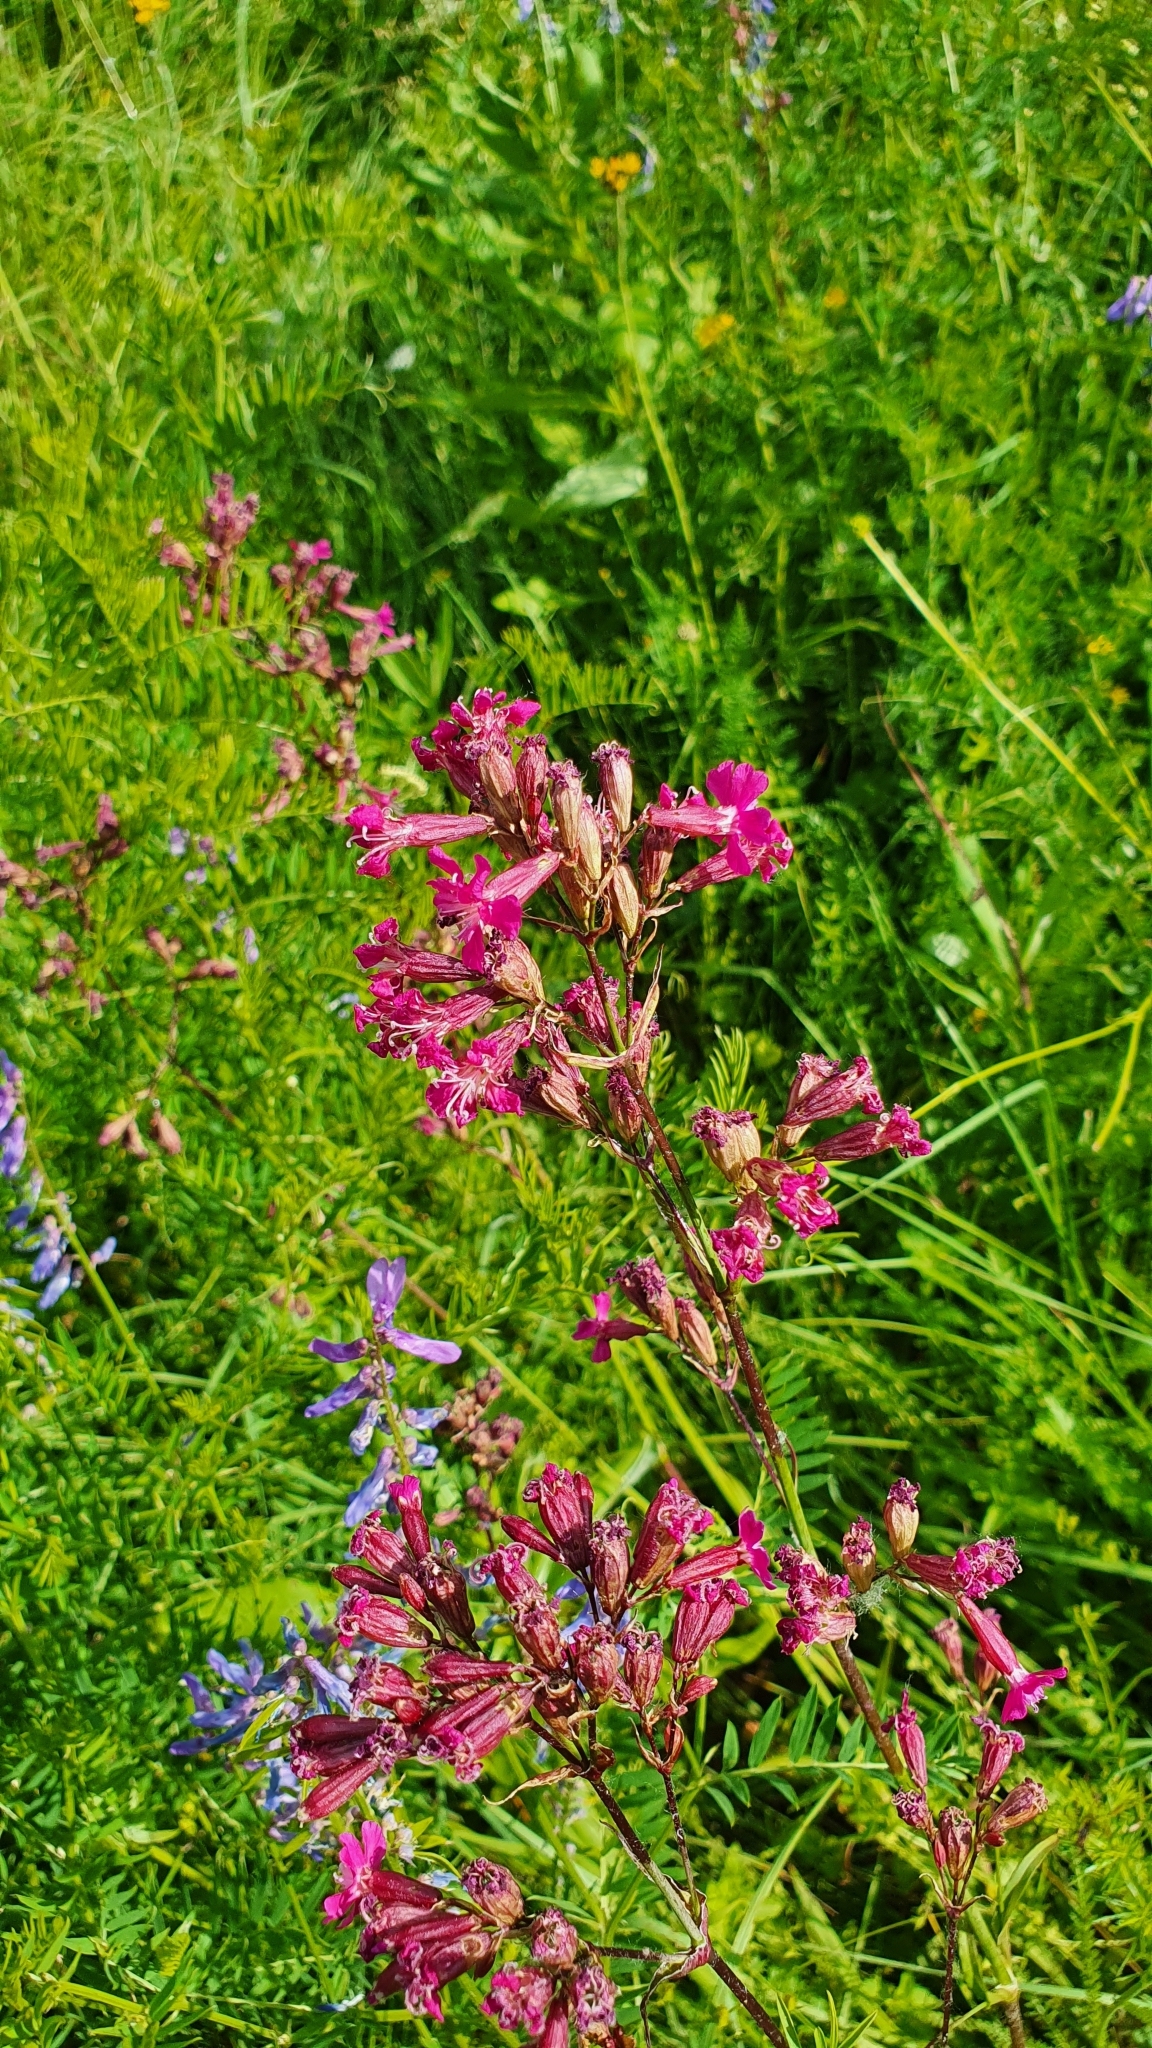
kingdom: Plantae
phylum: Tracheophyta
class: Magnoliopsida
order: Caryophyllales
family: Caryophyllaceae
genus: Viscaria
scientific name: Viscaria vulgaris
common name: Clammy campion
